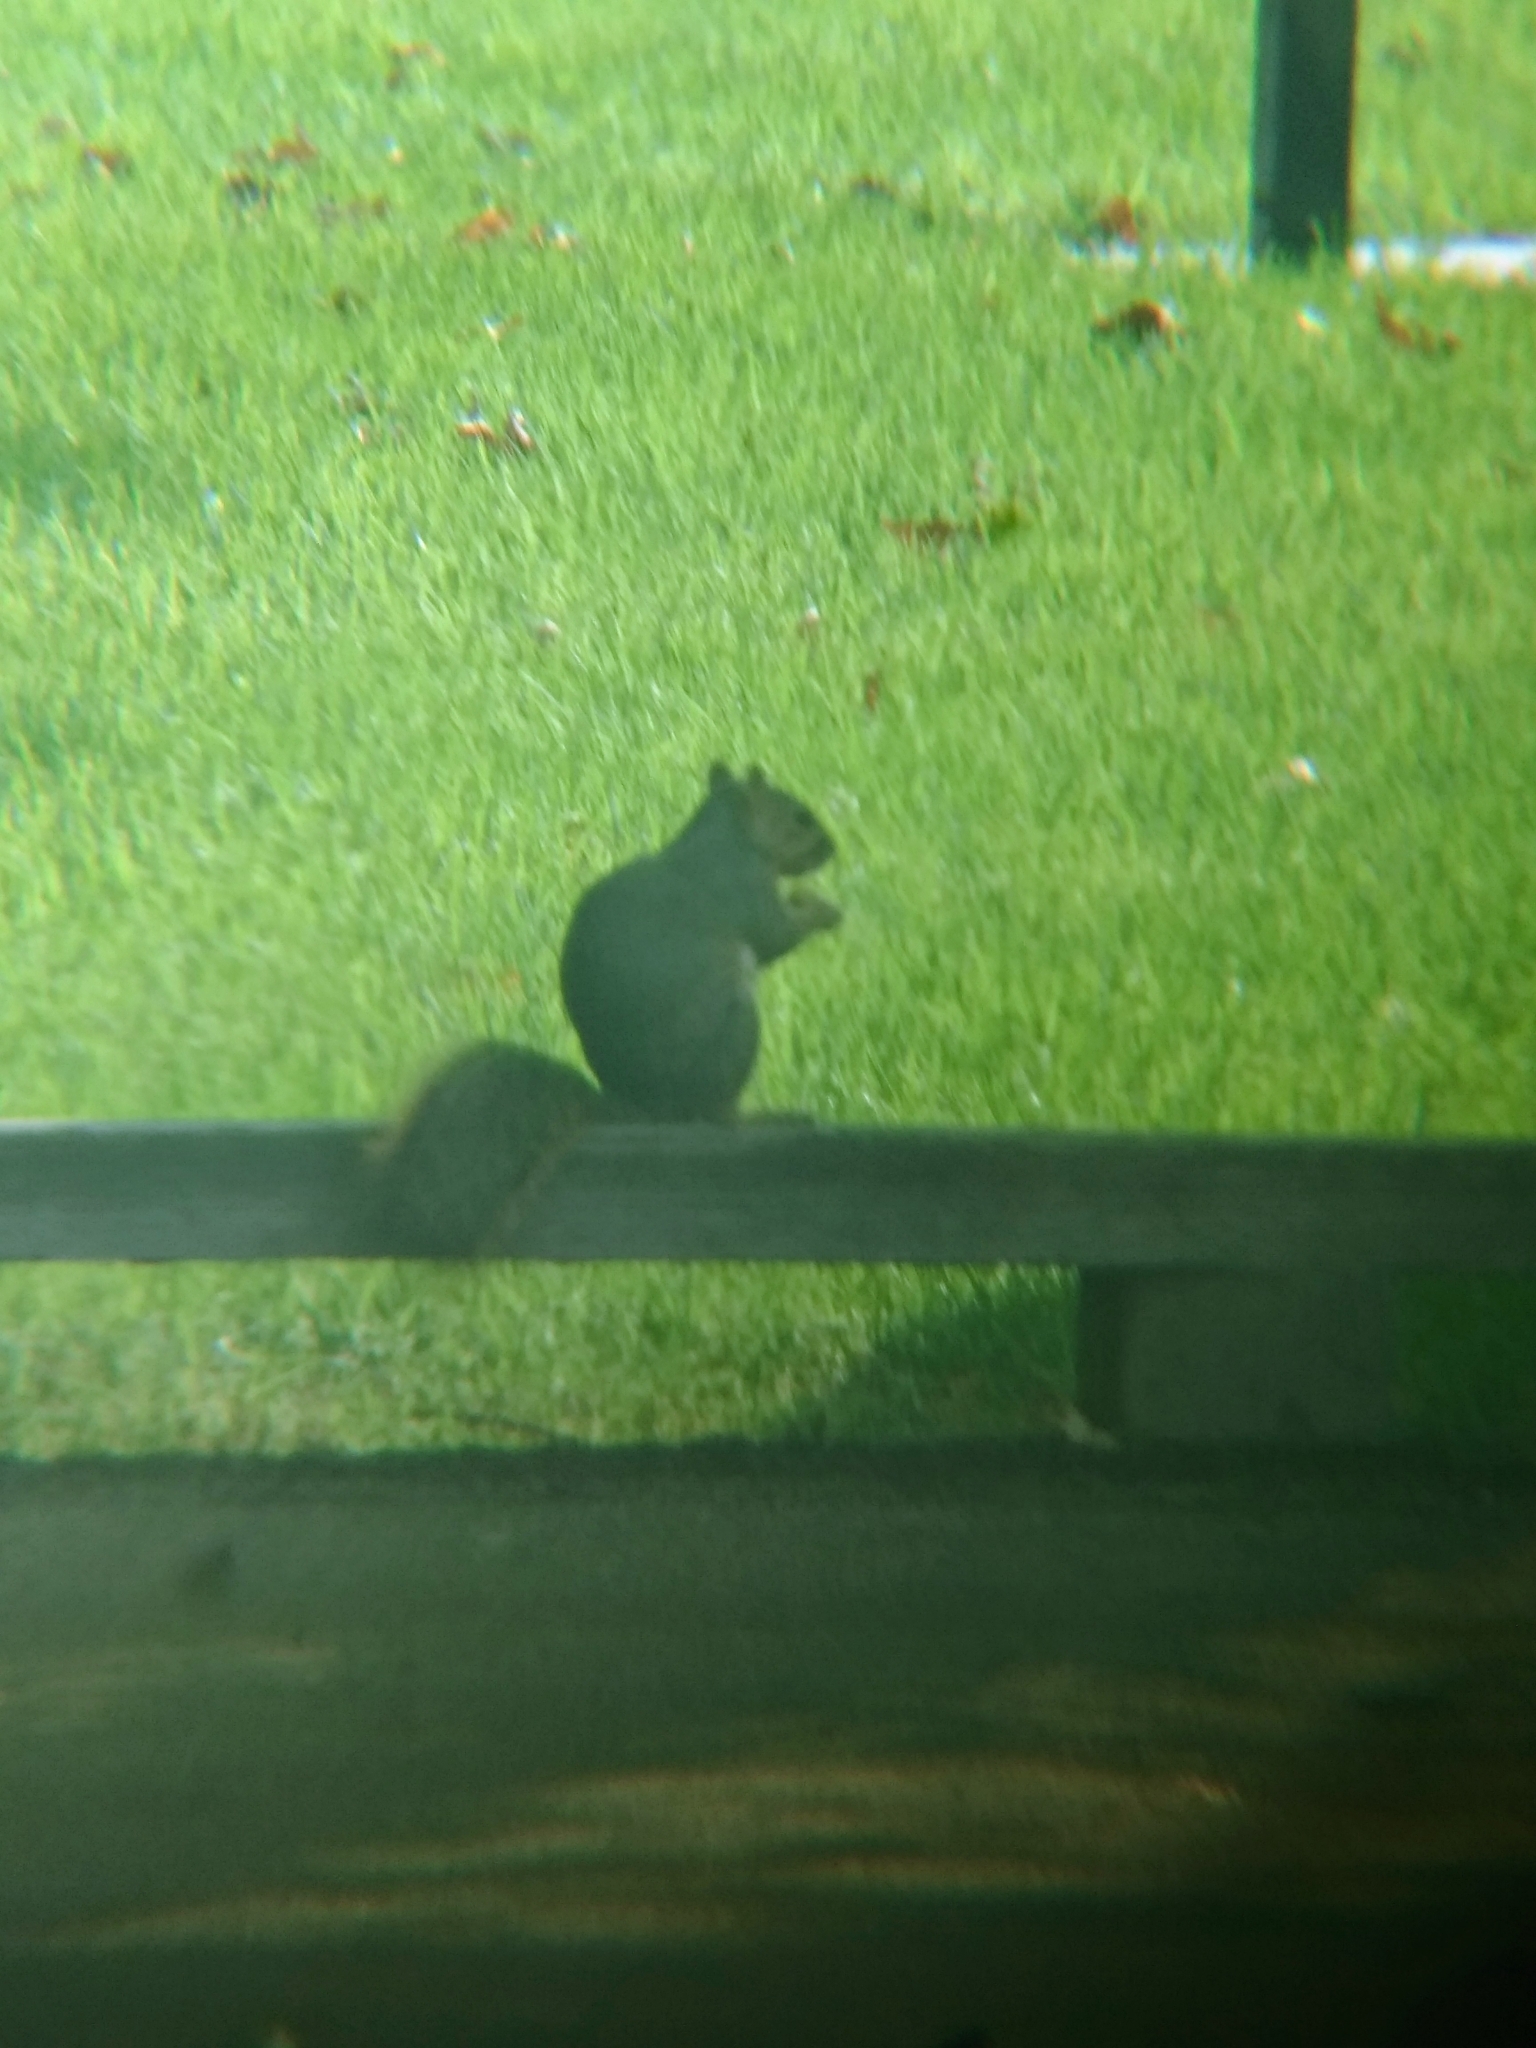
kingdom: Animalia
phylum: Chordata
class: Mammalia
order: Rodentia
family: Sciuridae
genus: Sciurus
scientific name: Sciurus niger
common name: Fox squirrel
